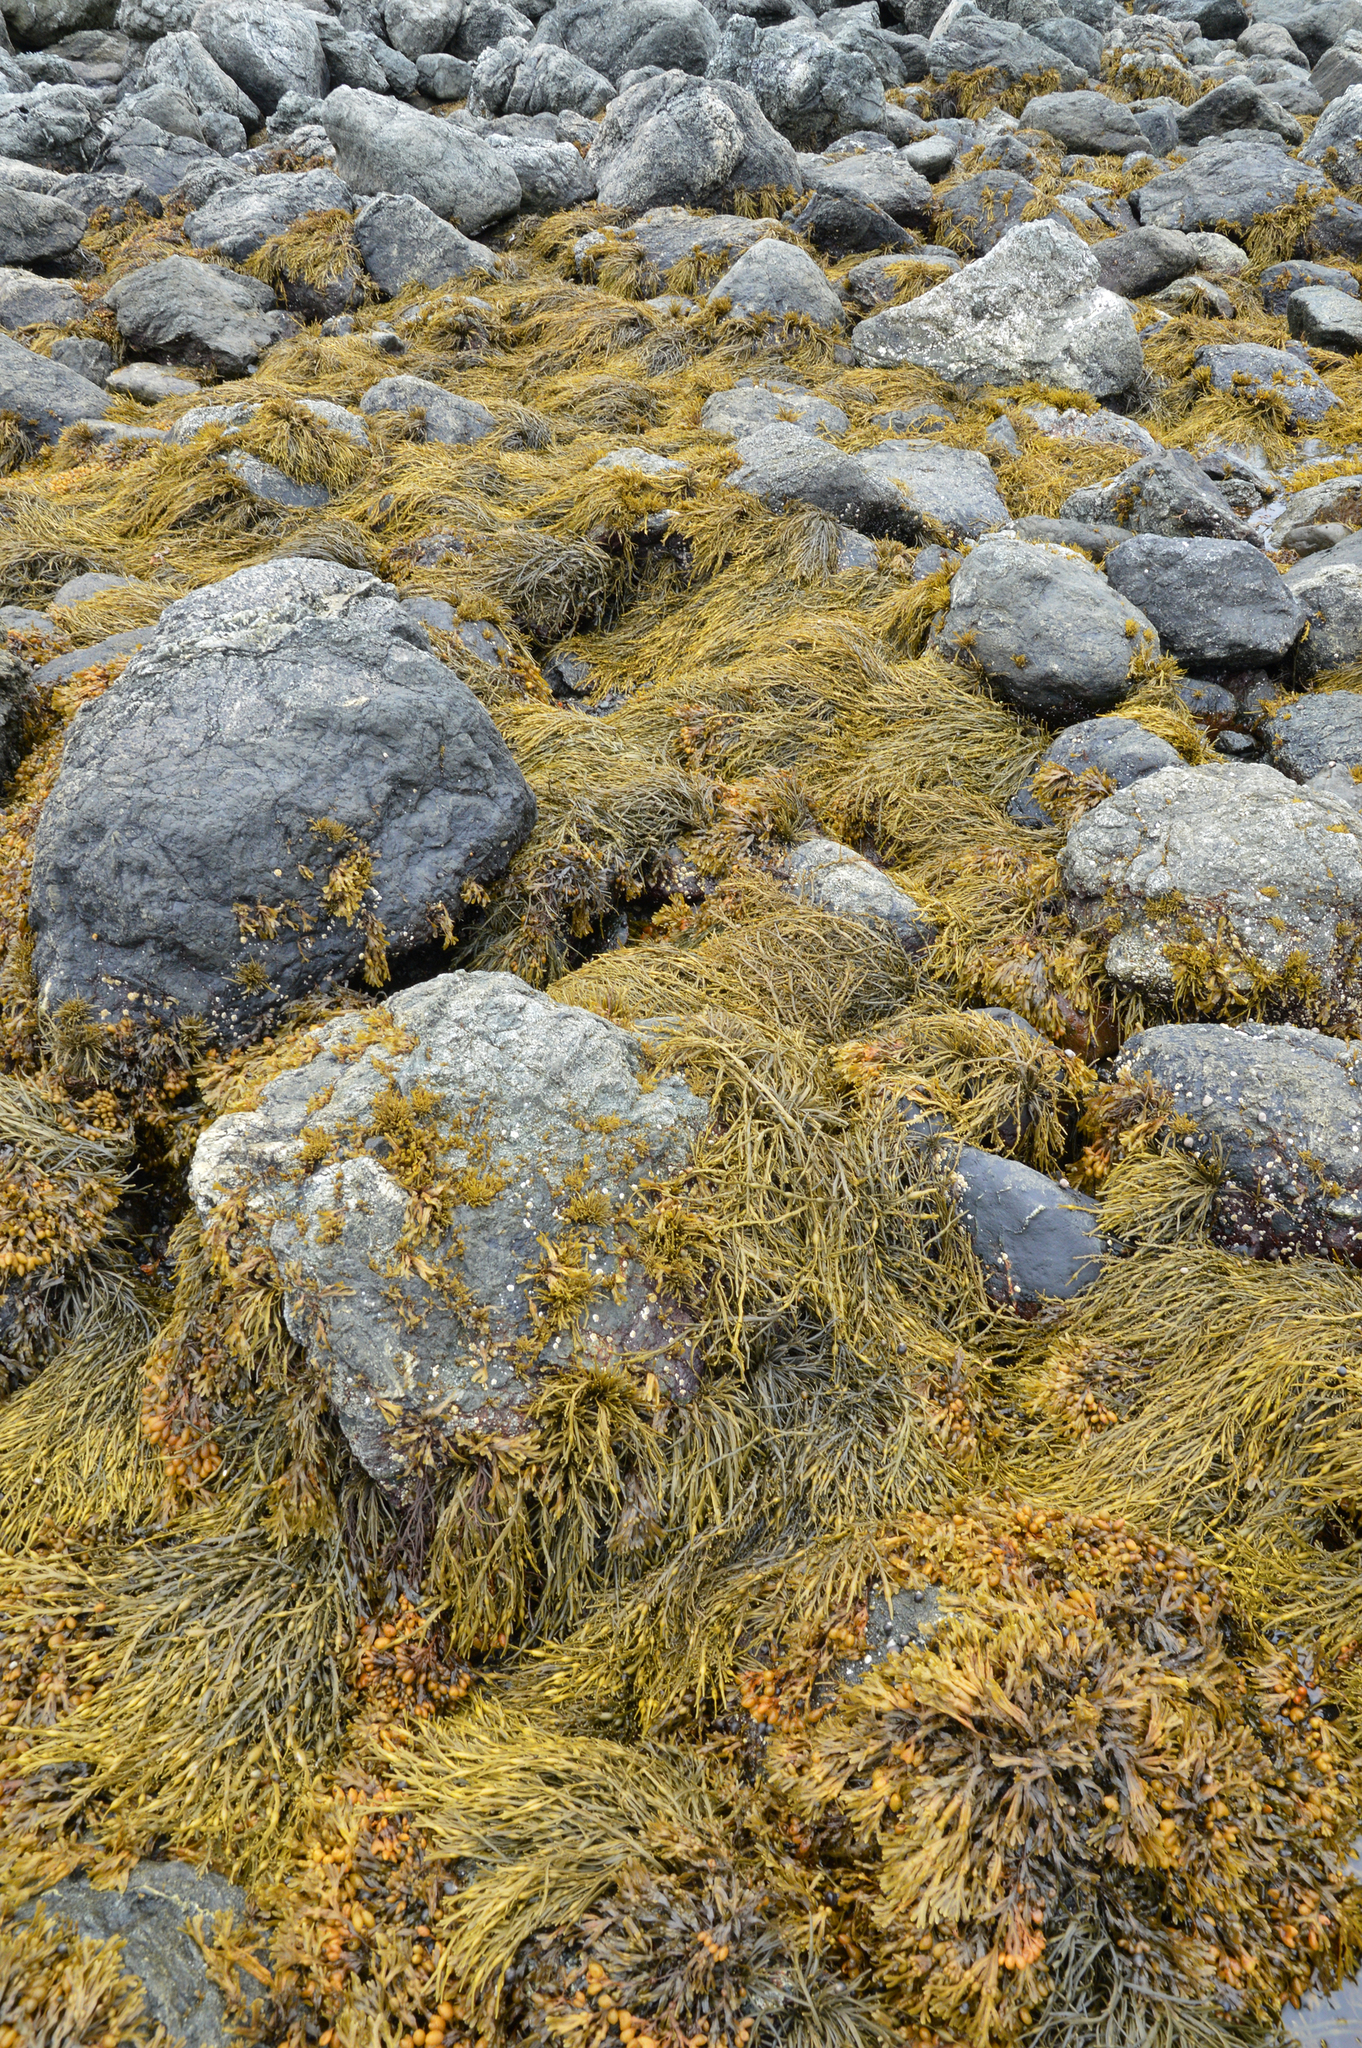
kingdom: Chromista
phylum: Ochrophyta
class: Phaeophyceae
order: Fucales
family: Fucaceae
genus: Ascophyllum
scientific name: Ascophyllum nodosum
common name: Knotted wrack
